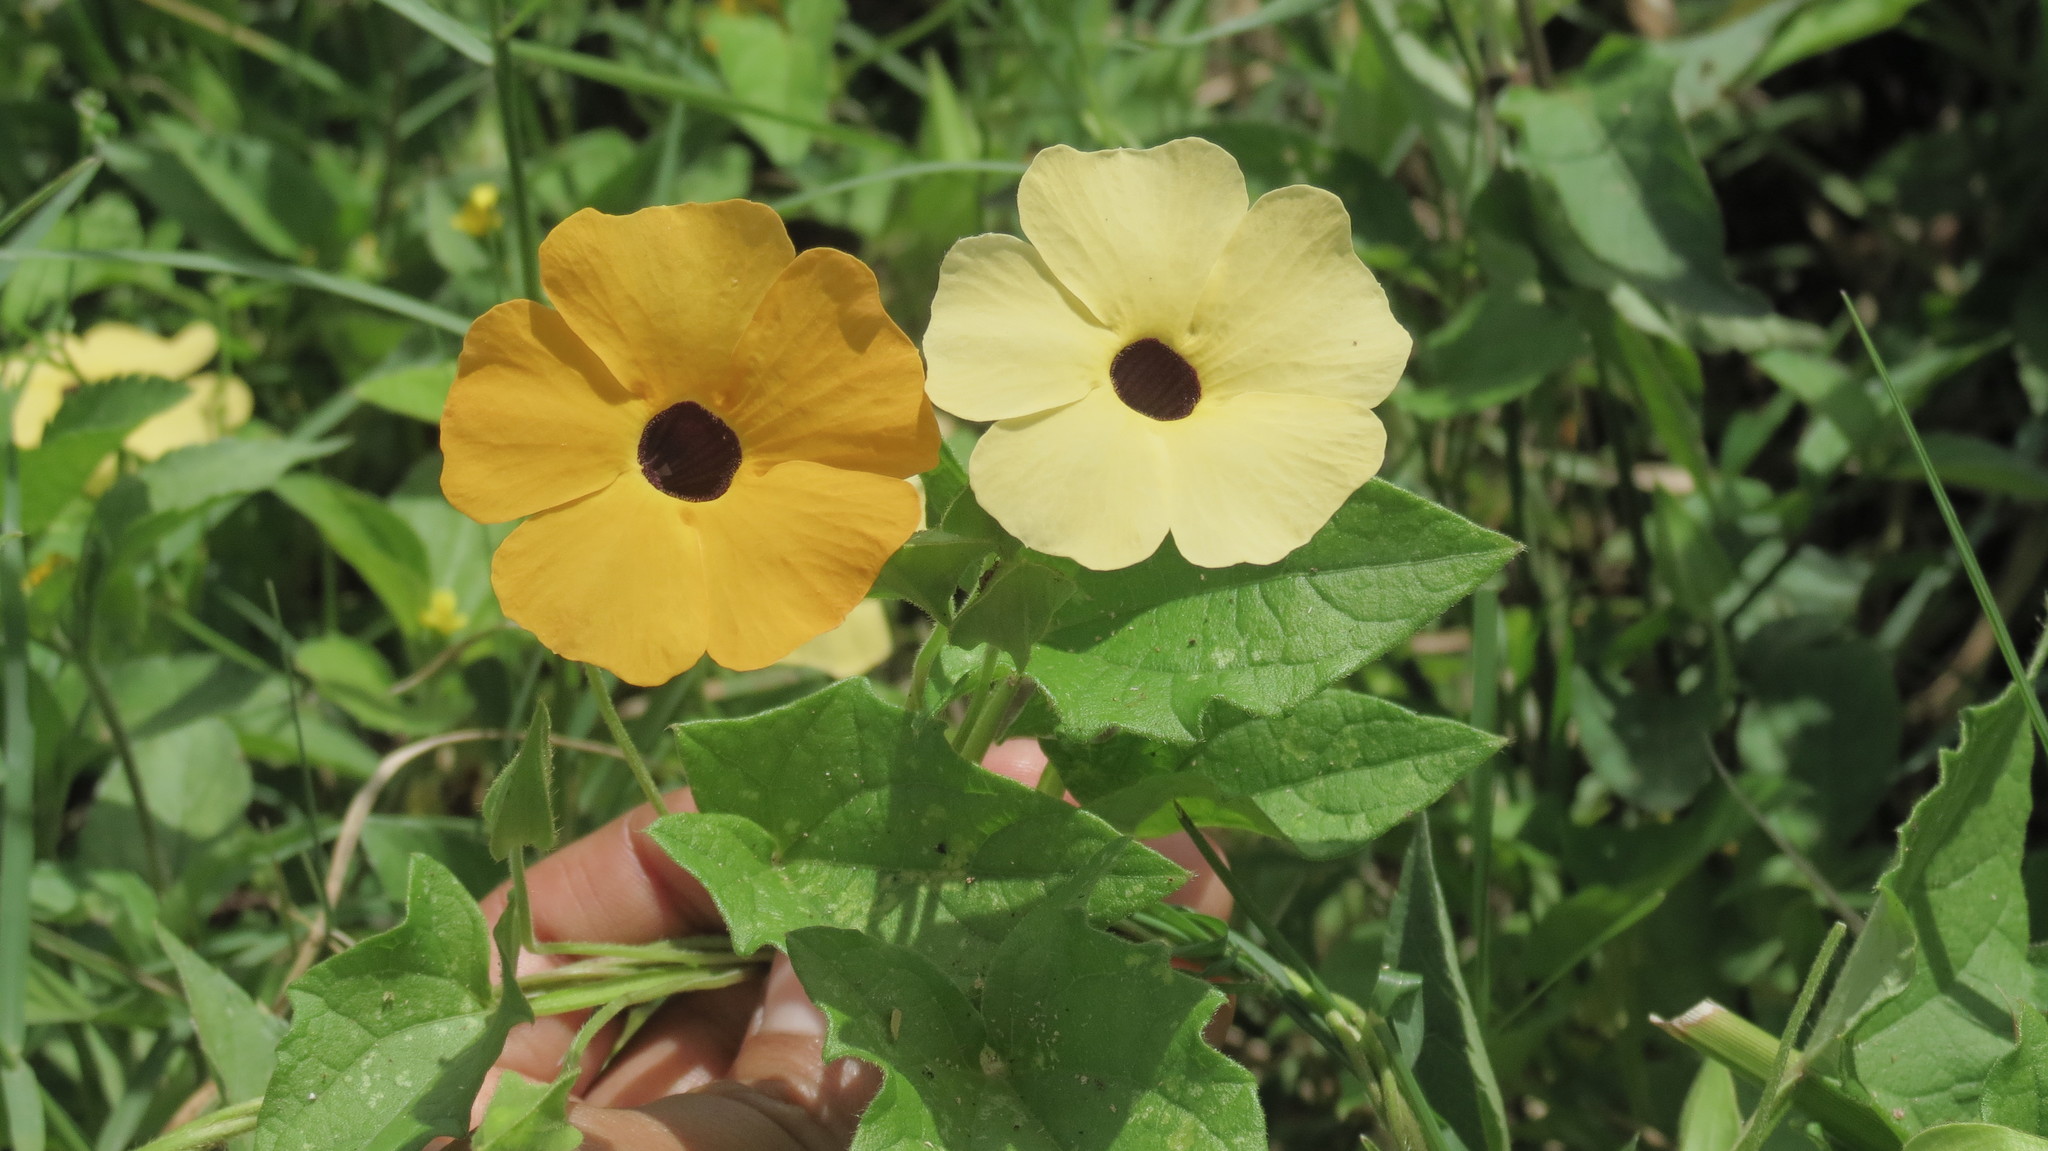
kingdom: Plantae
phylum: Tracheophyta
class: Magnoliopsida
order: Lamiales
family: Acanthaceae
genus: Thunbergia
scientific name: Thunbergia alata
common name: Blackeyed susan vine
